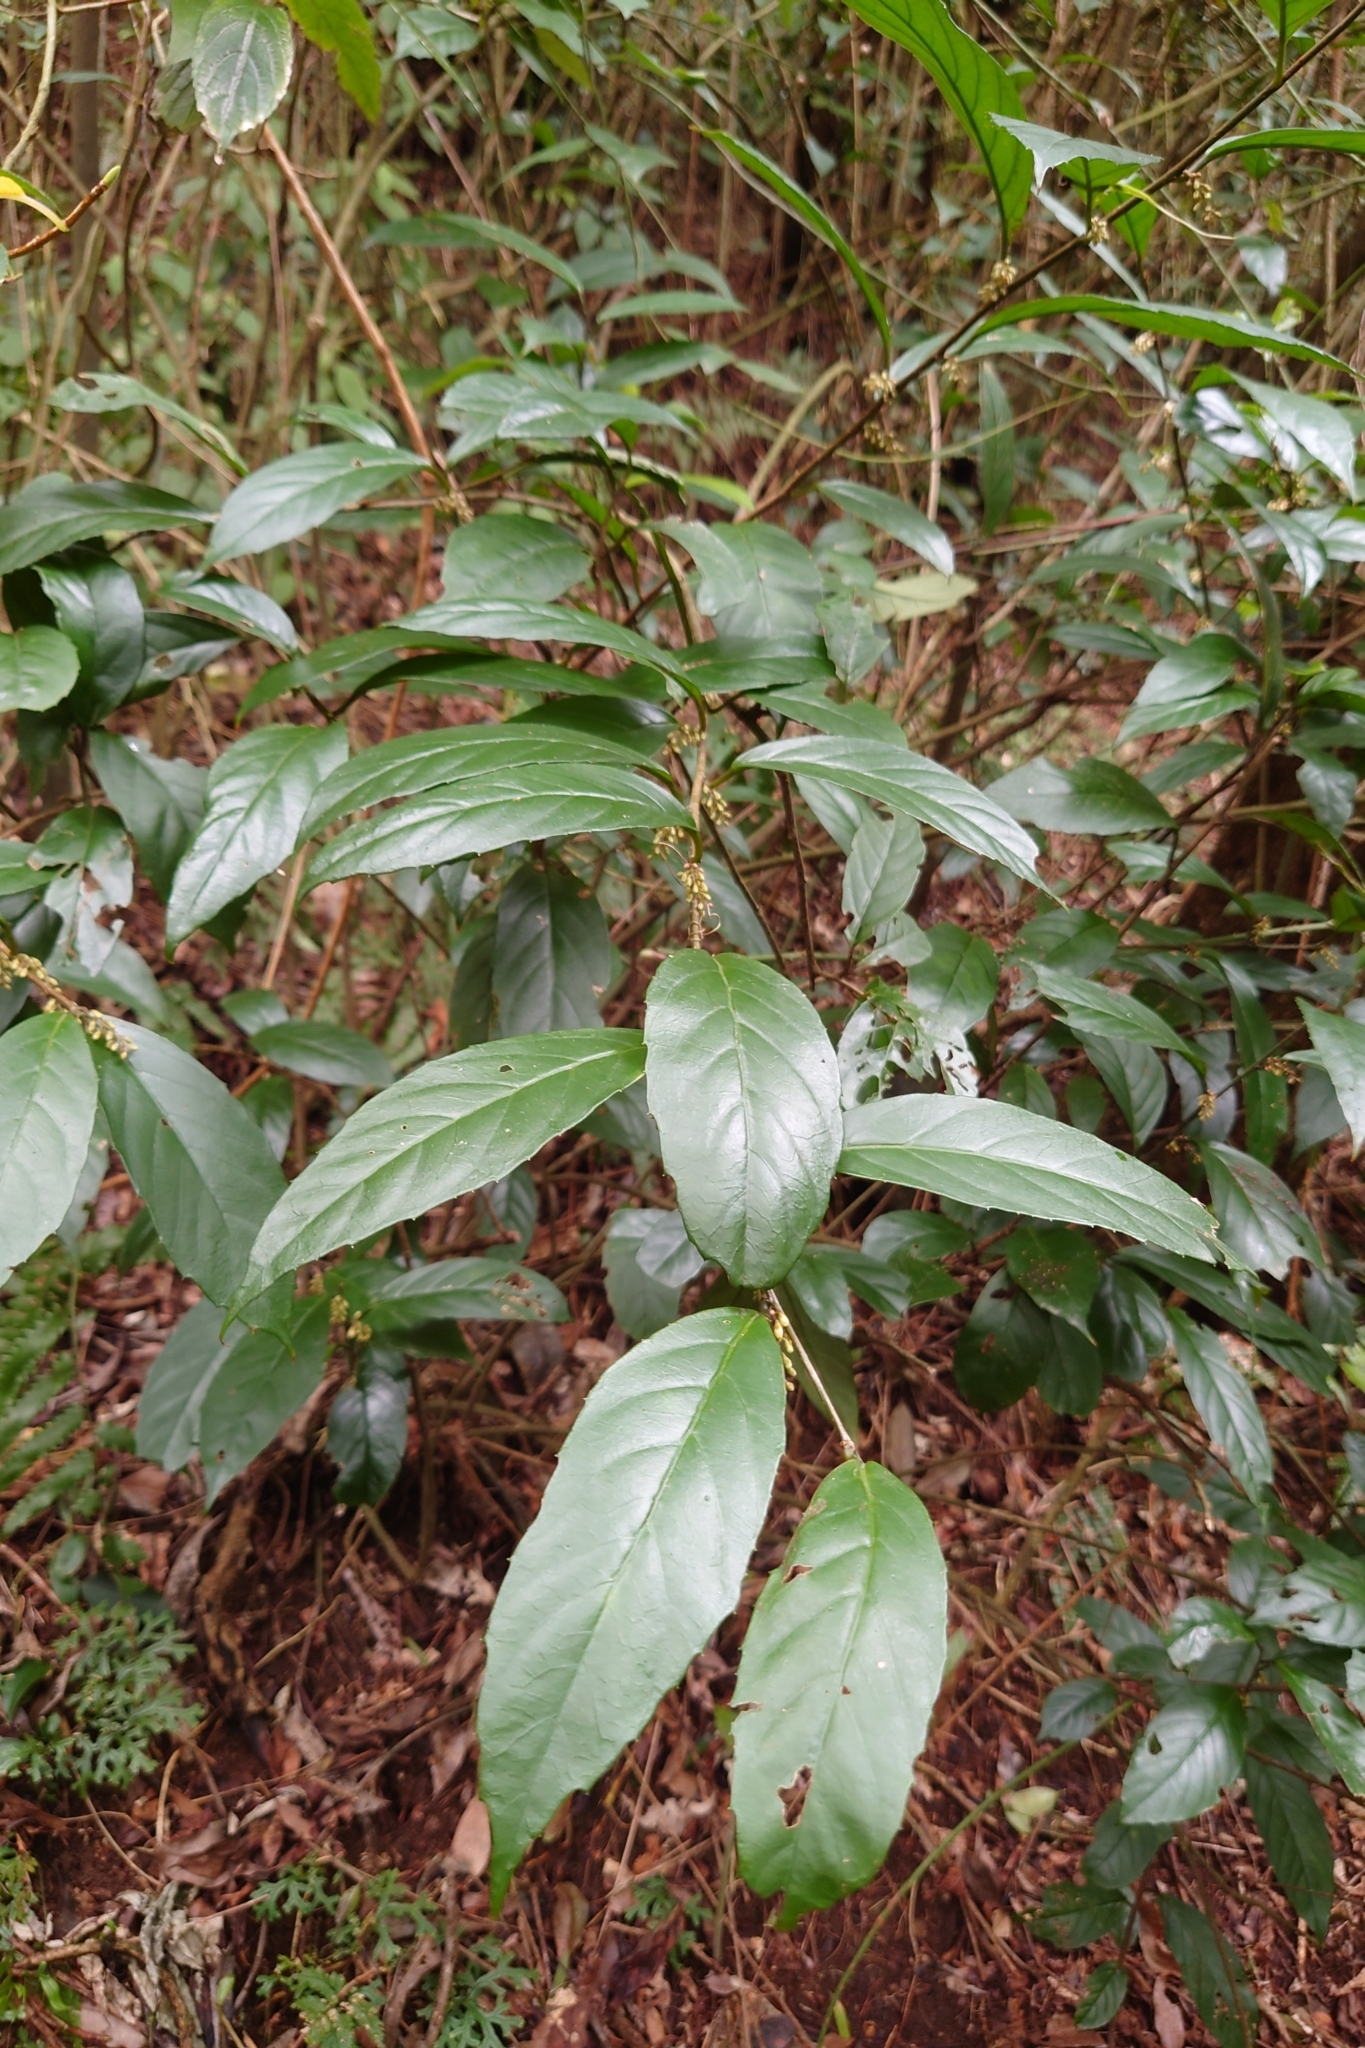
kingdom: Plantae
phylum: Tracheophyta
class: Magnoliopsida
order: Ericales
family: Primulaceae
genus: Maesa
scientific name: Maesa japonica
